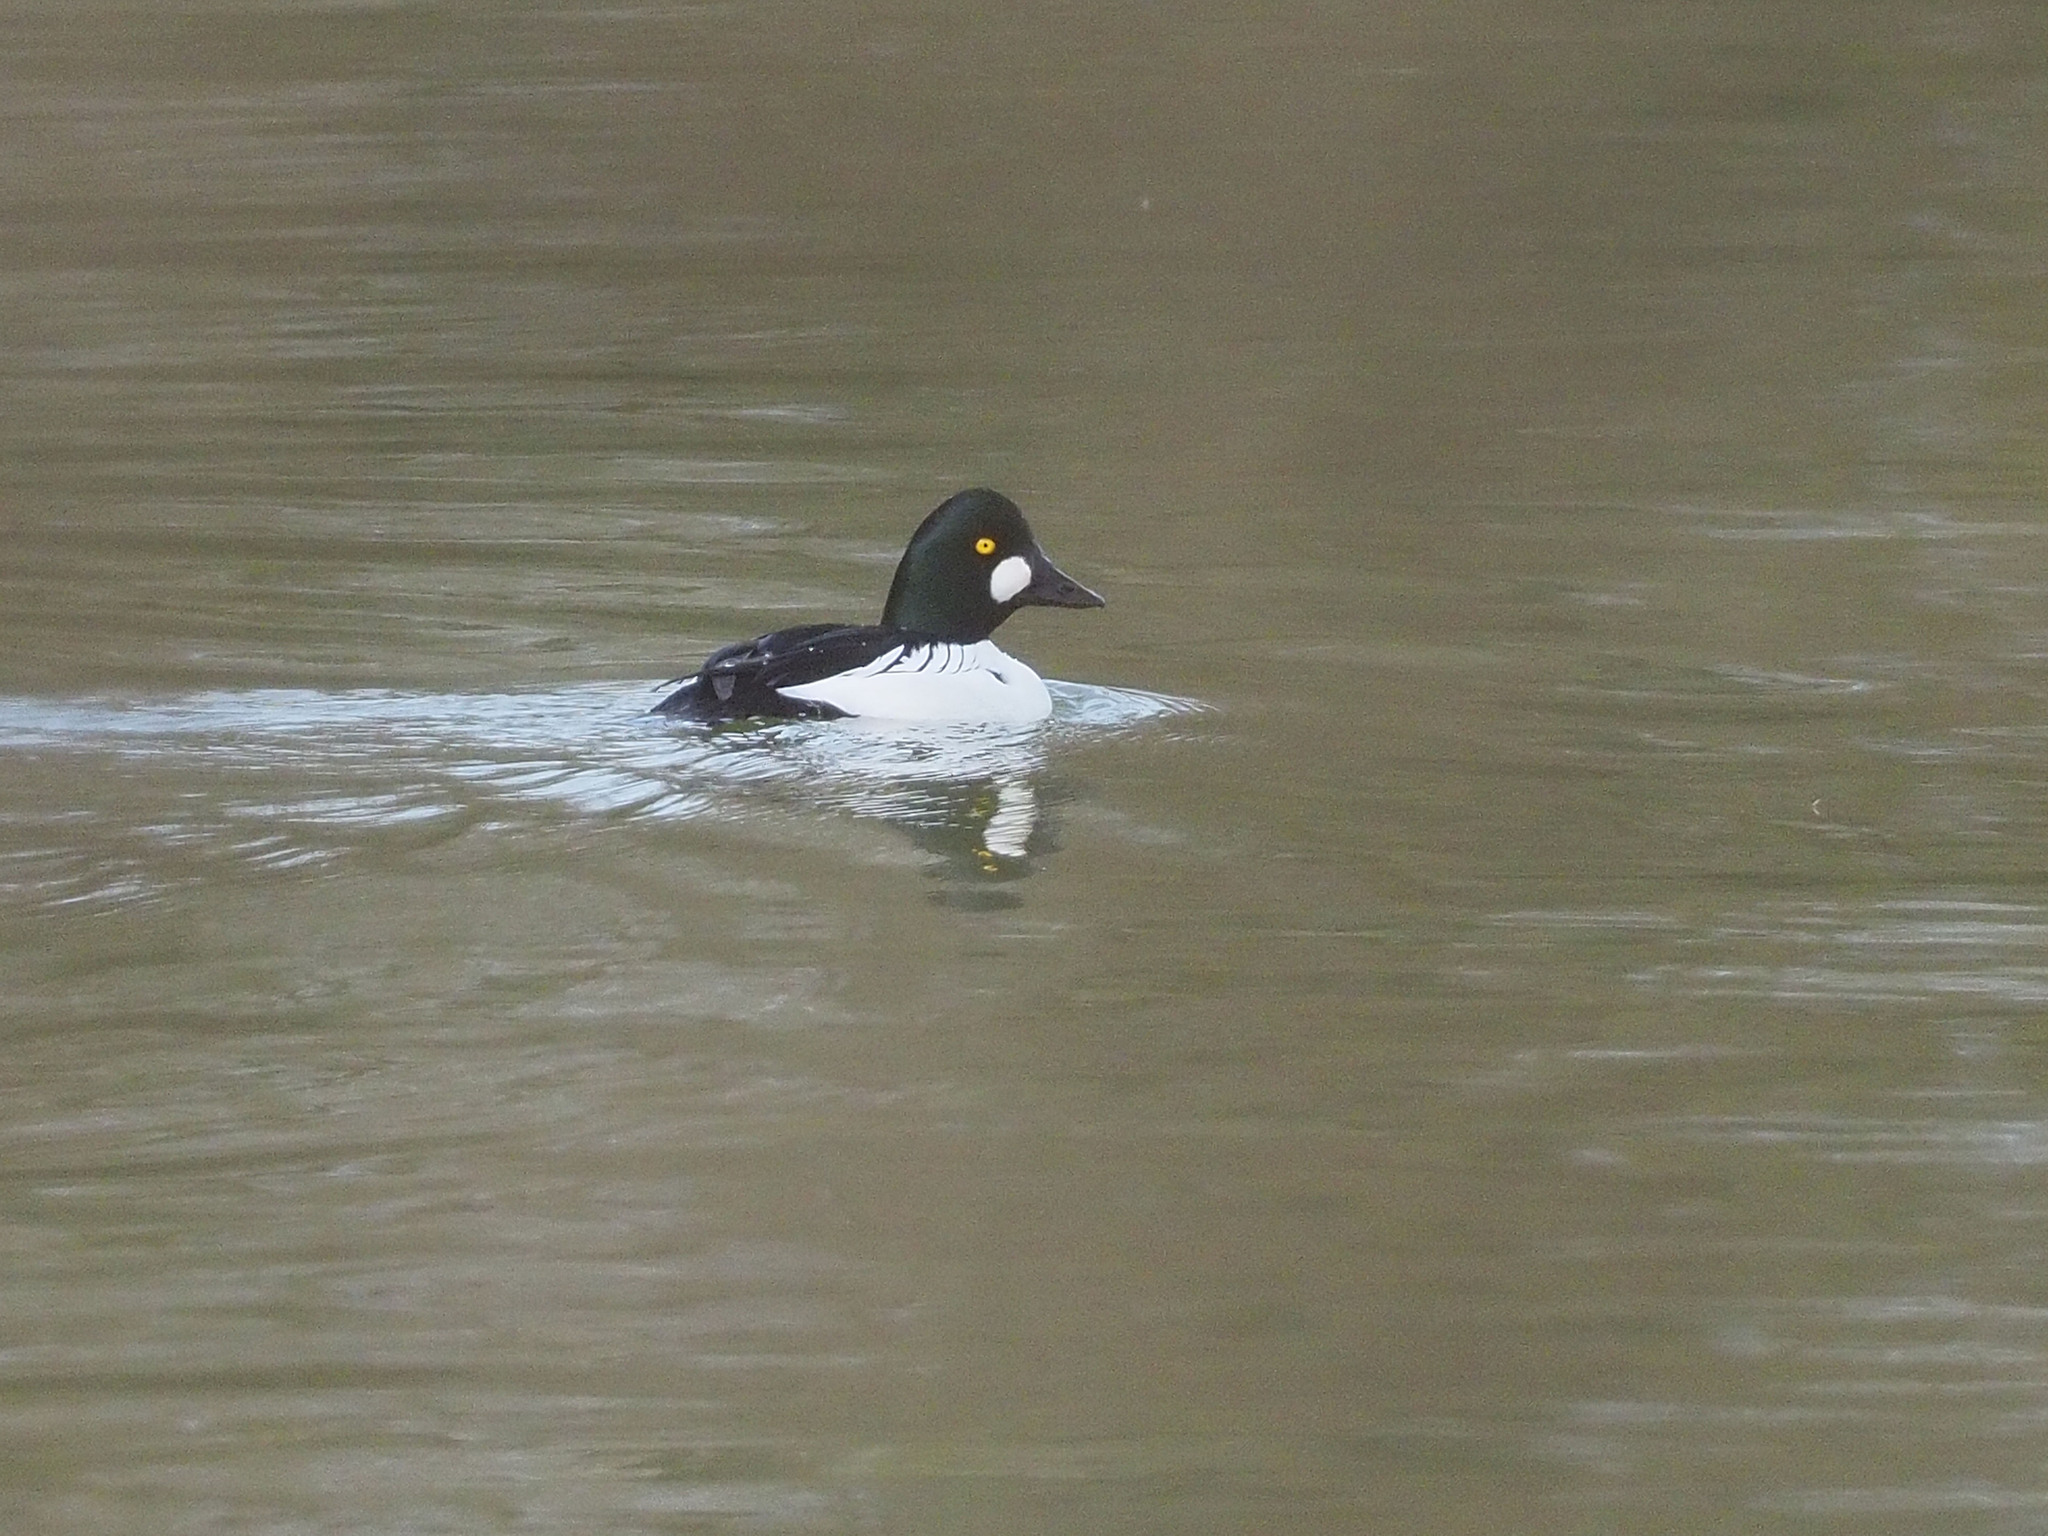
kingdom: Animalia
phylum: Chordata
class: Aves
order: Anseriformes
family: Anatidae
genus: Bucephala
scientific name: Bucephala clangula
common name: Common goldeneye
